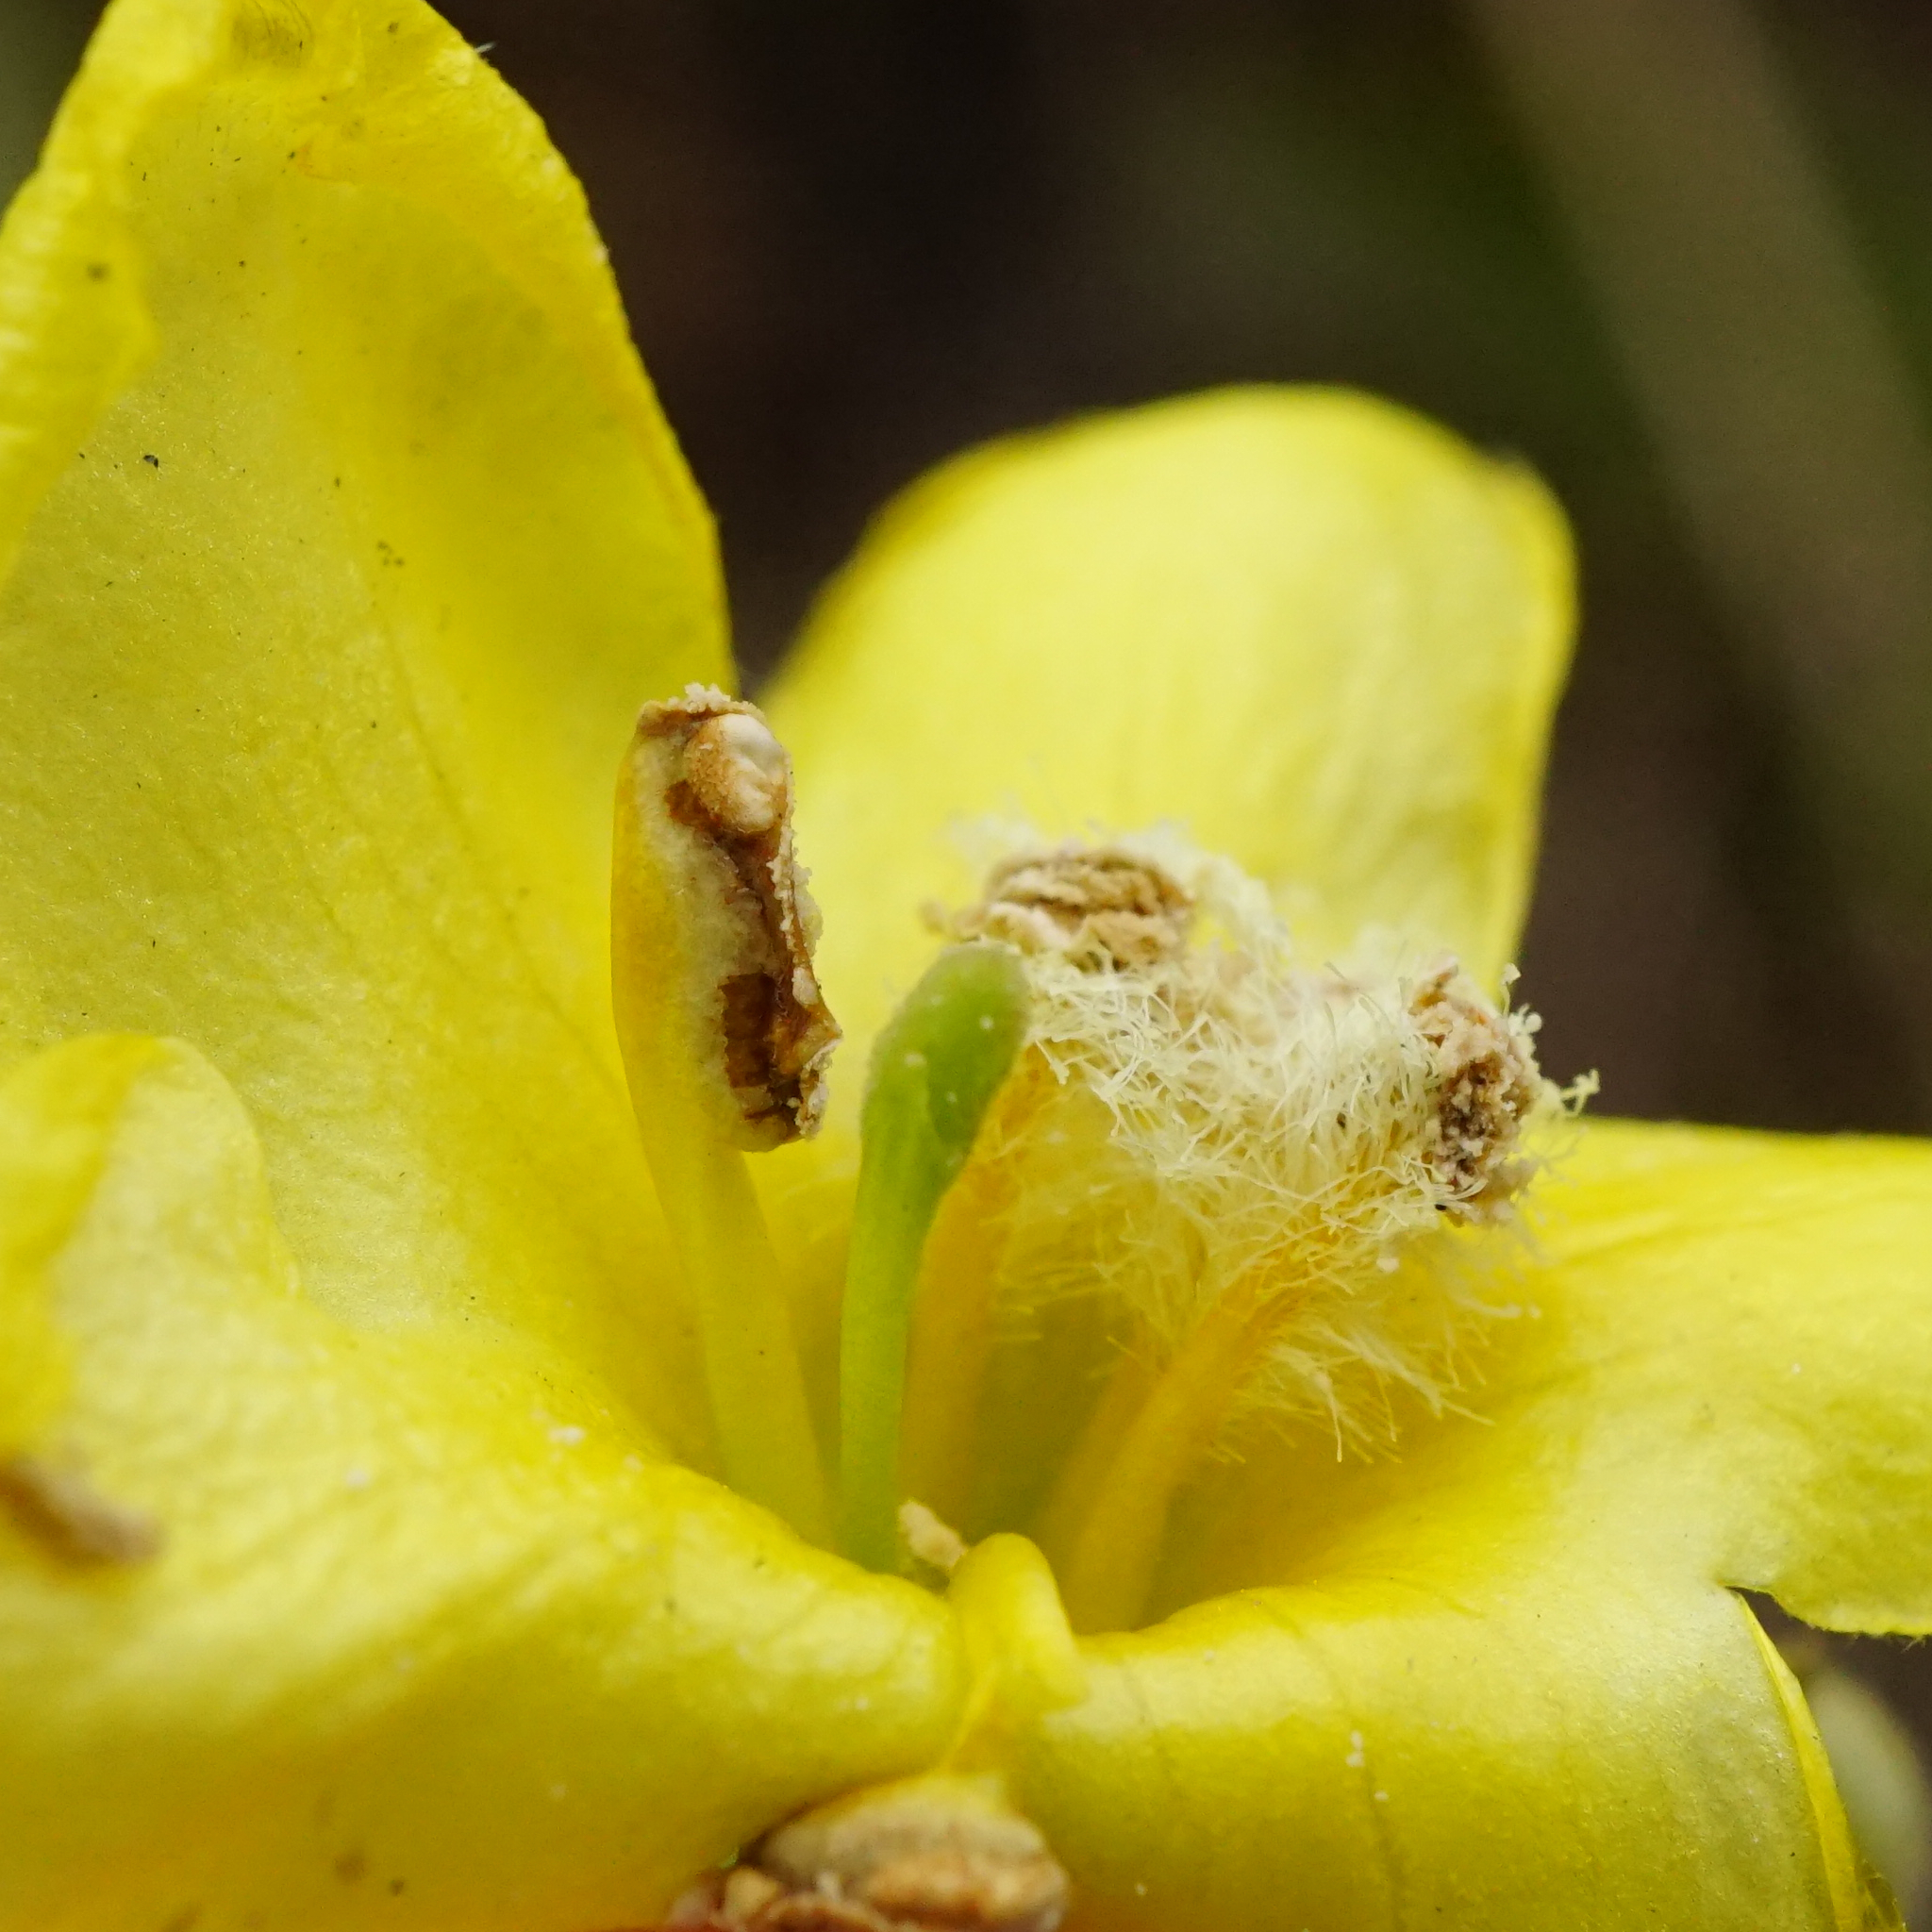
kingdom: Plantae
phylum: Tracheophyta
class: Magnoliopsida
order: Lamiales
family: Scrophulariaceae
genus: Verbascum
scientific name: Verbascum phlomoides
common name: Orange mullein
